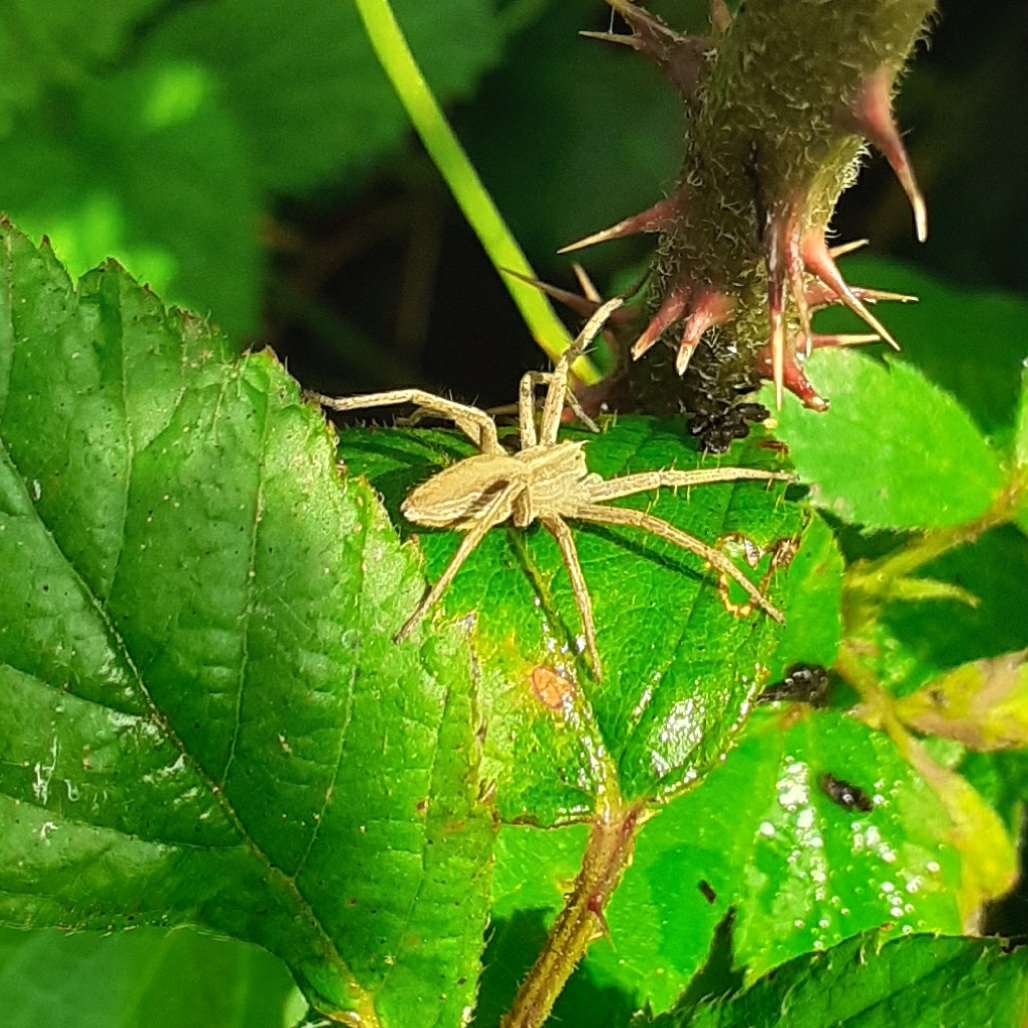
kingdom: Animalia
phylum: Arthropoda
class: Arachnida
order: Araneae
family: Pisauridae
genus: Pisaura
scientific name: Pisaura mirabilis
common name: Tent spider
